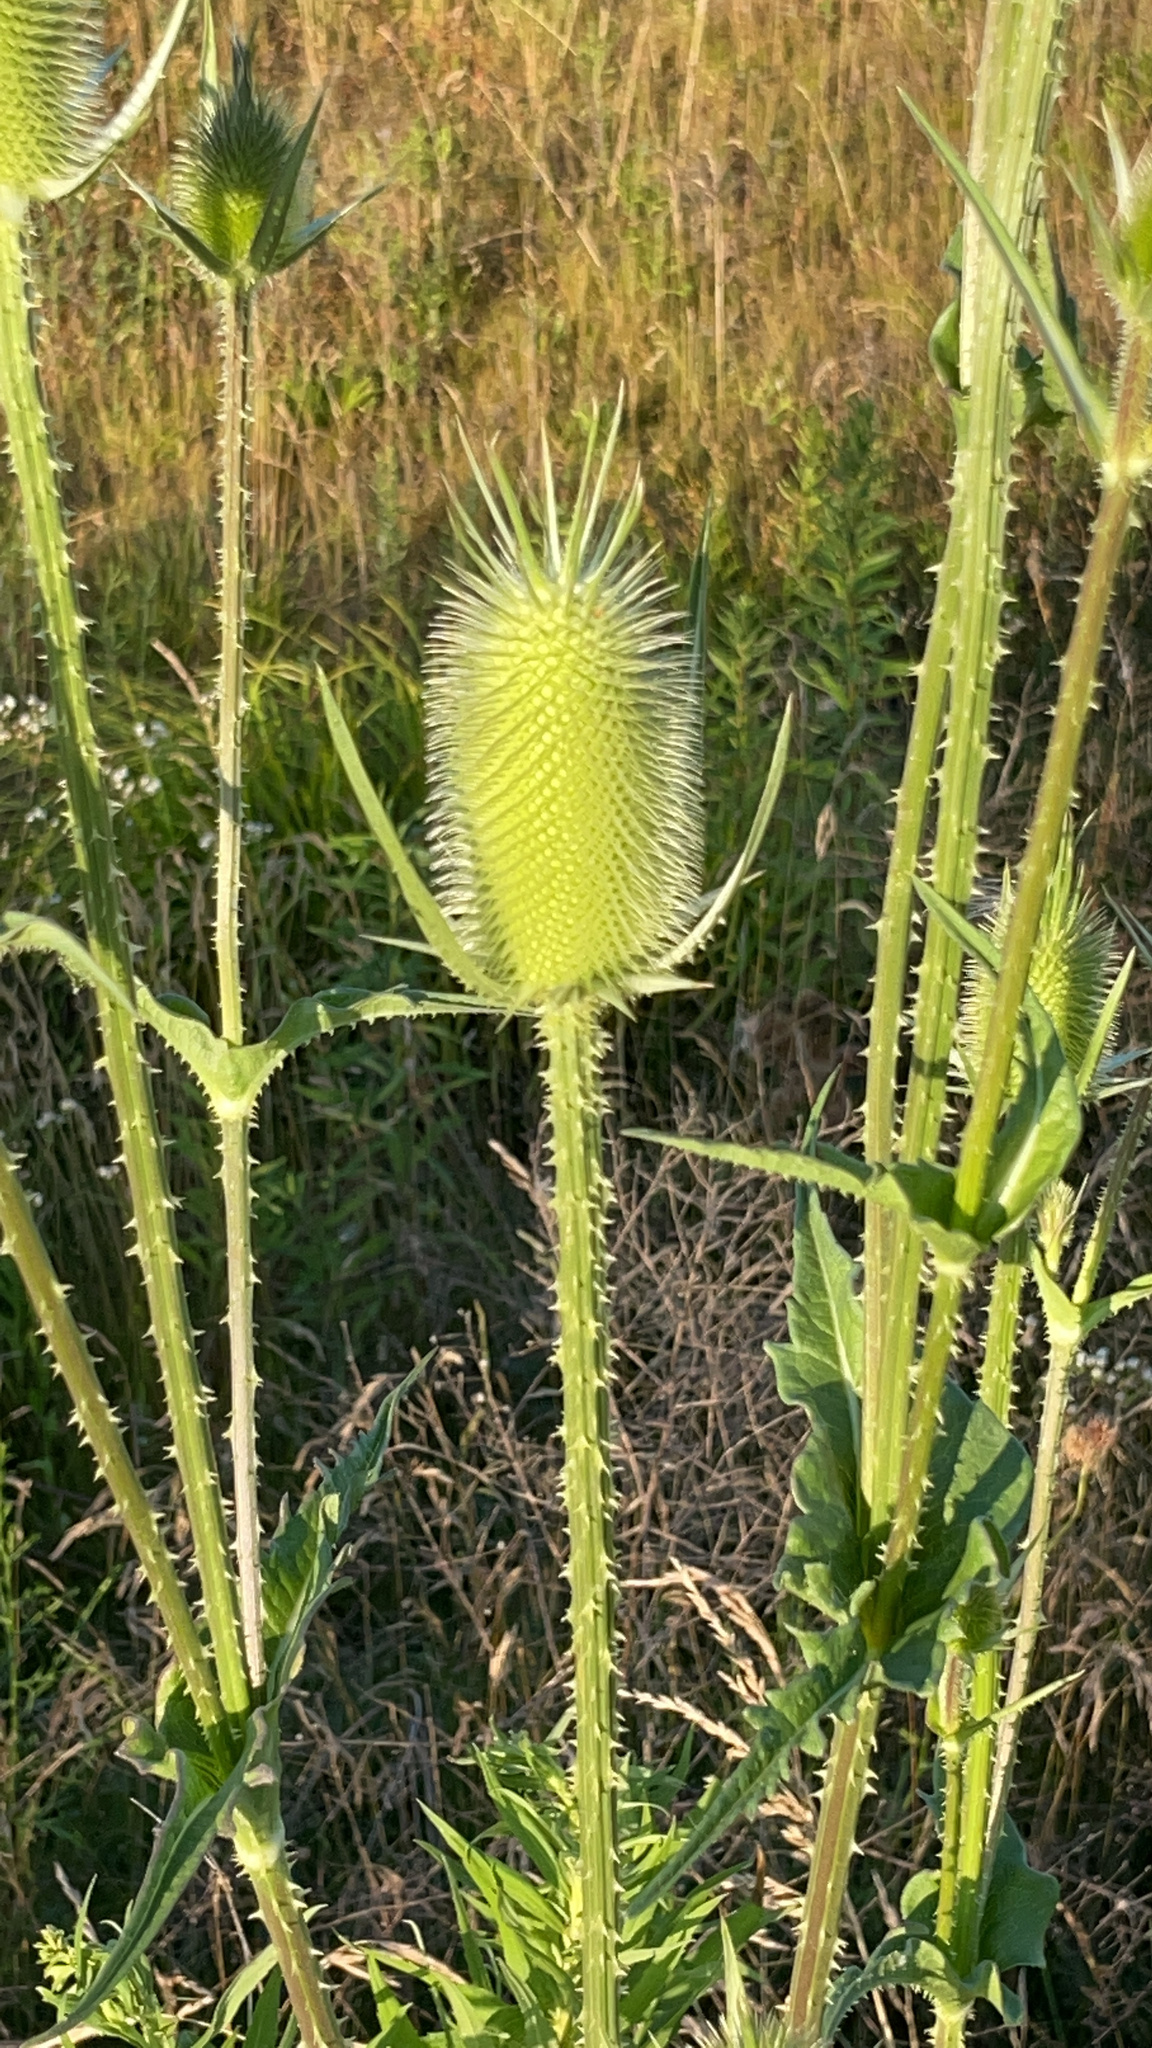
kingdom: Plantae
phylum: Tracheophyta
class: Magnoliopsida
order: Dipsacales
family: Caprifoliaceae
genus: Dipsacus
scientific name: Dipsacus laciniatus
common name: Cut-leaved teasel
